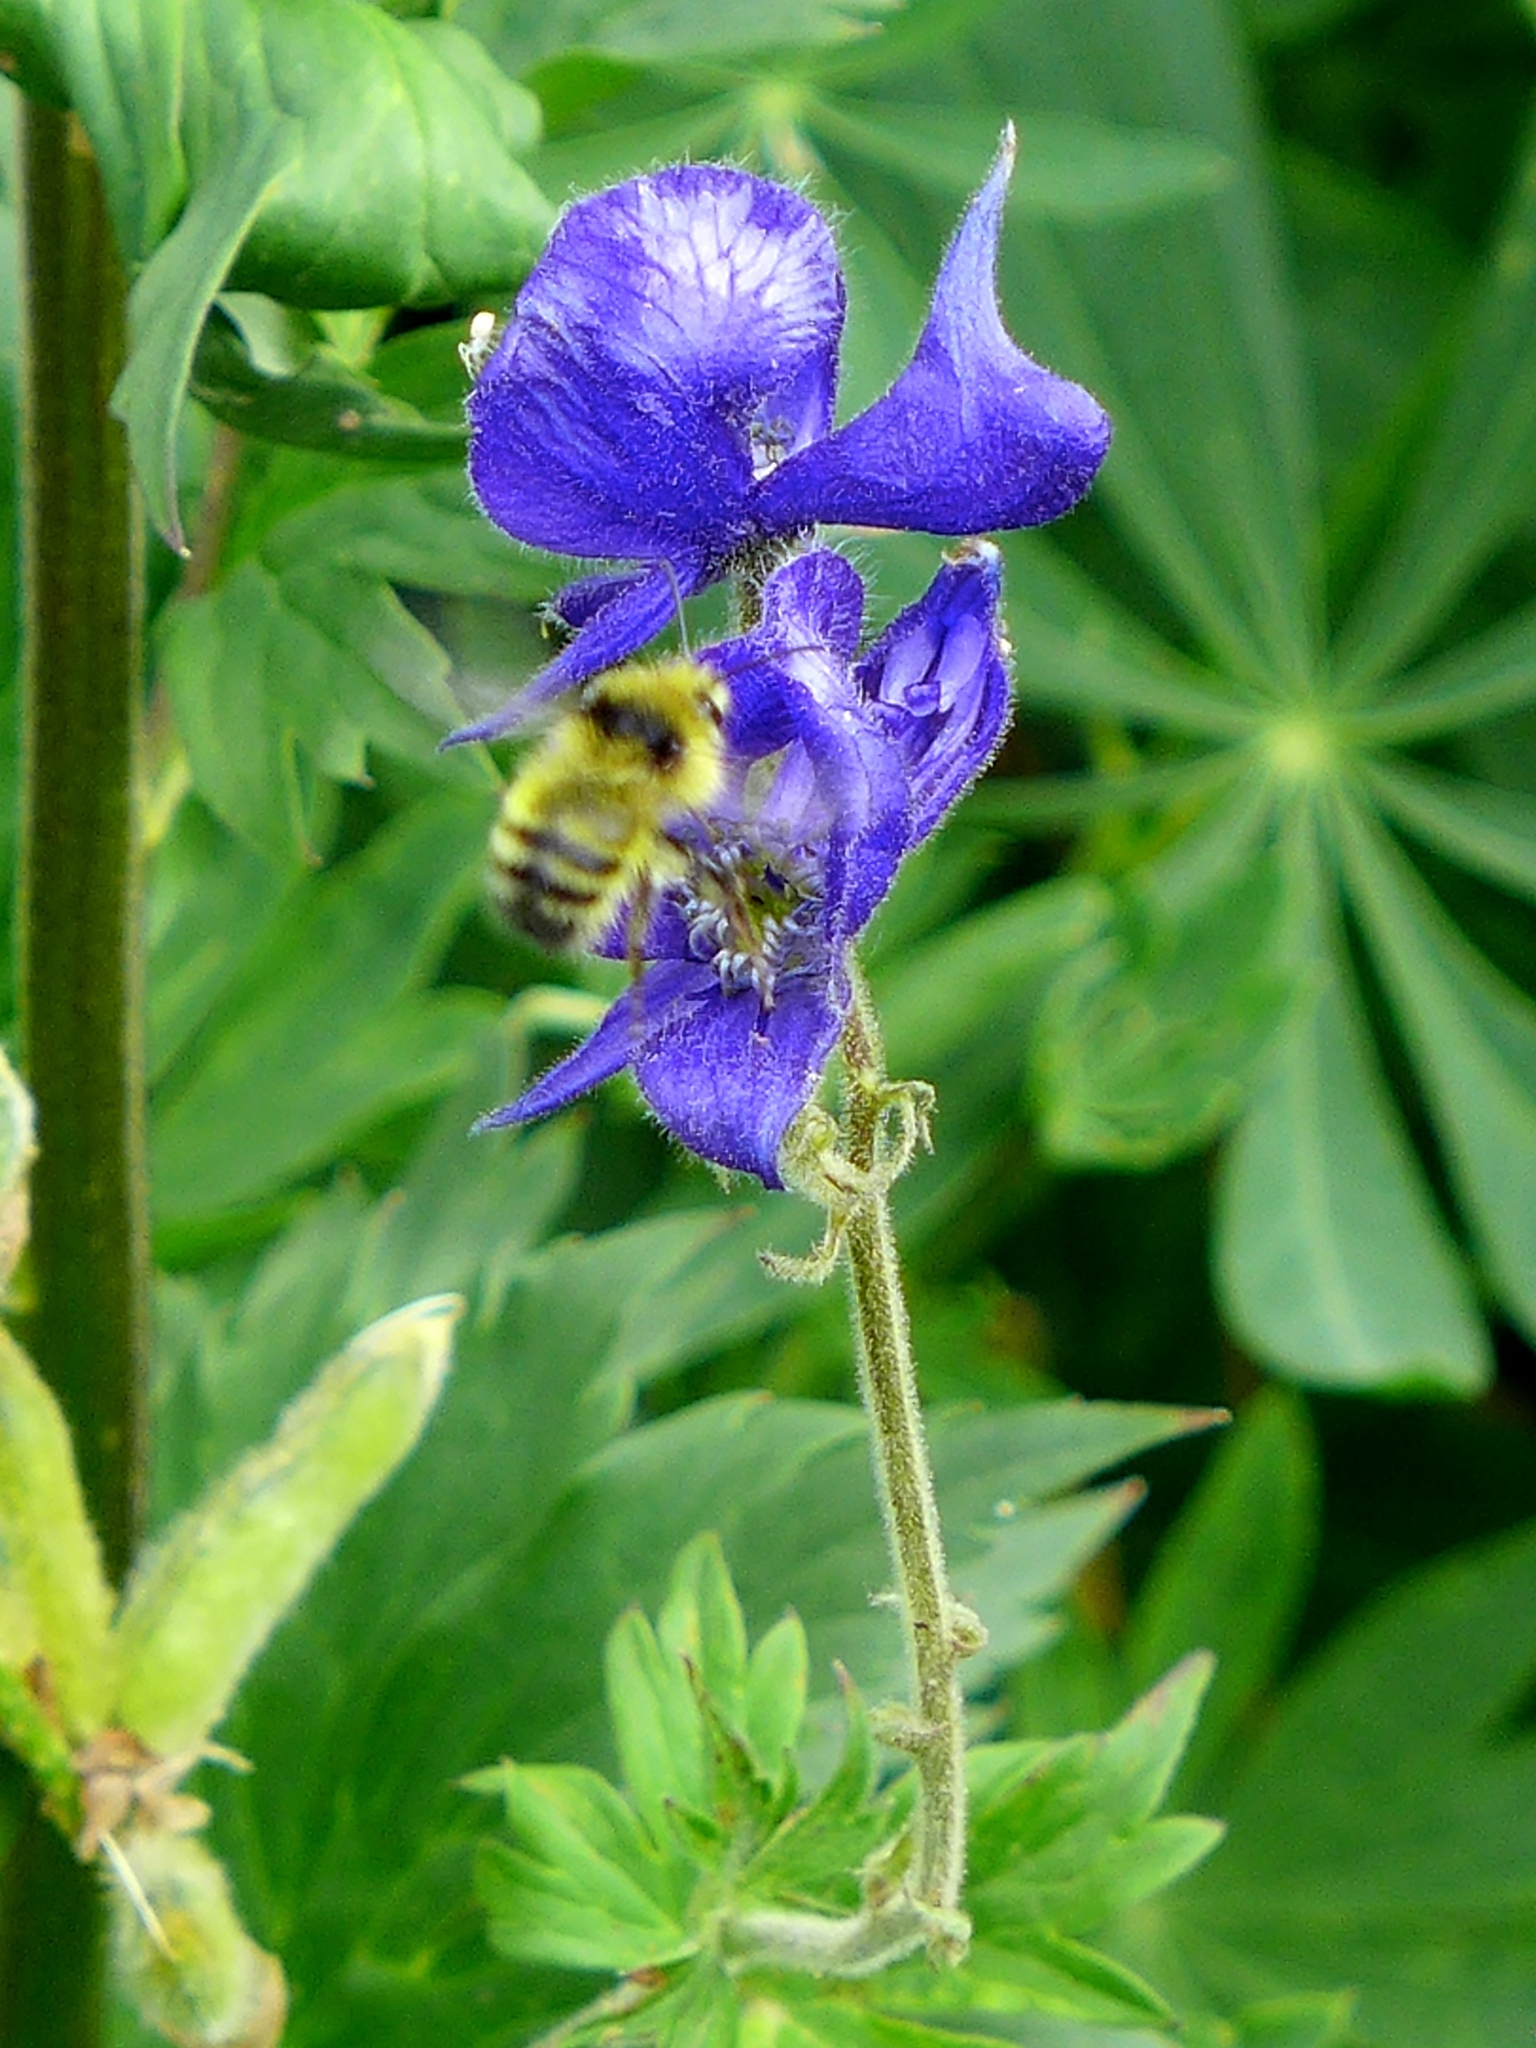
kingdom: Plantae
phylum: Tracheophyta
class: Magnoliopsida
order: Ranunculales
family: Ranunculaceae
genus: Aconitum
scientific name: Aconitum columbianum
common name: Columbia aconite
